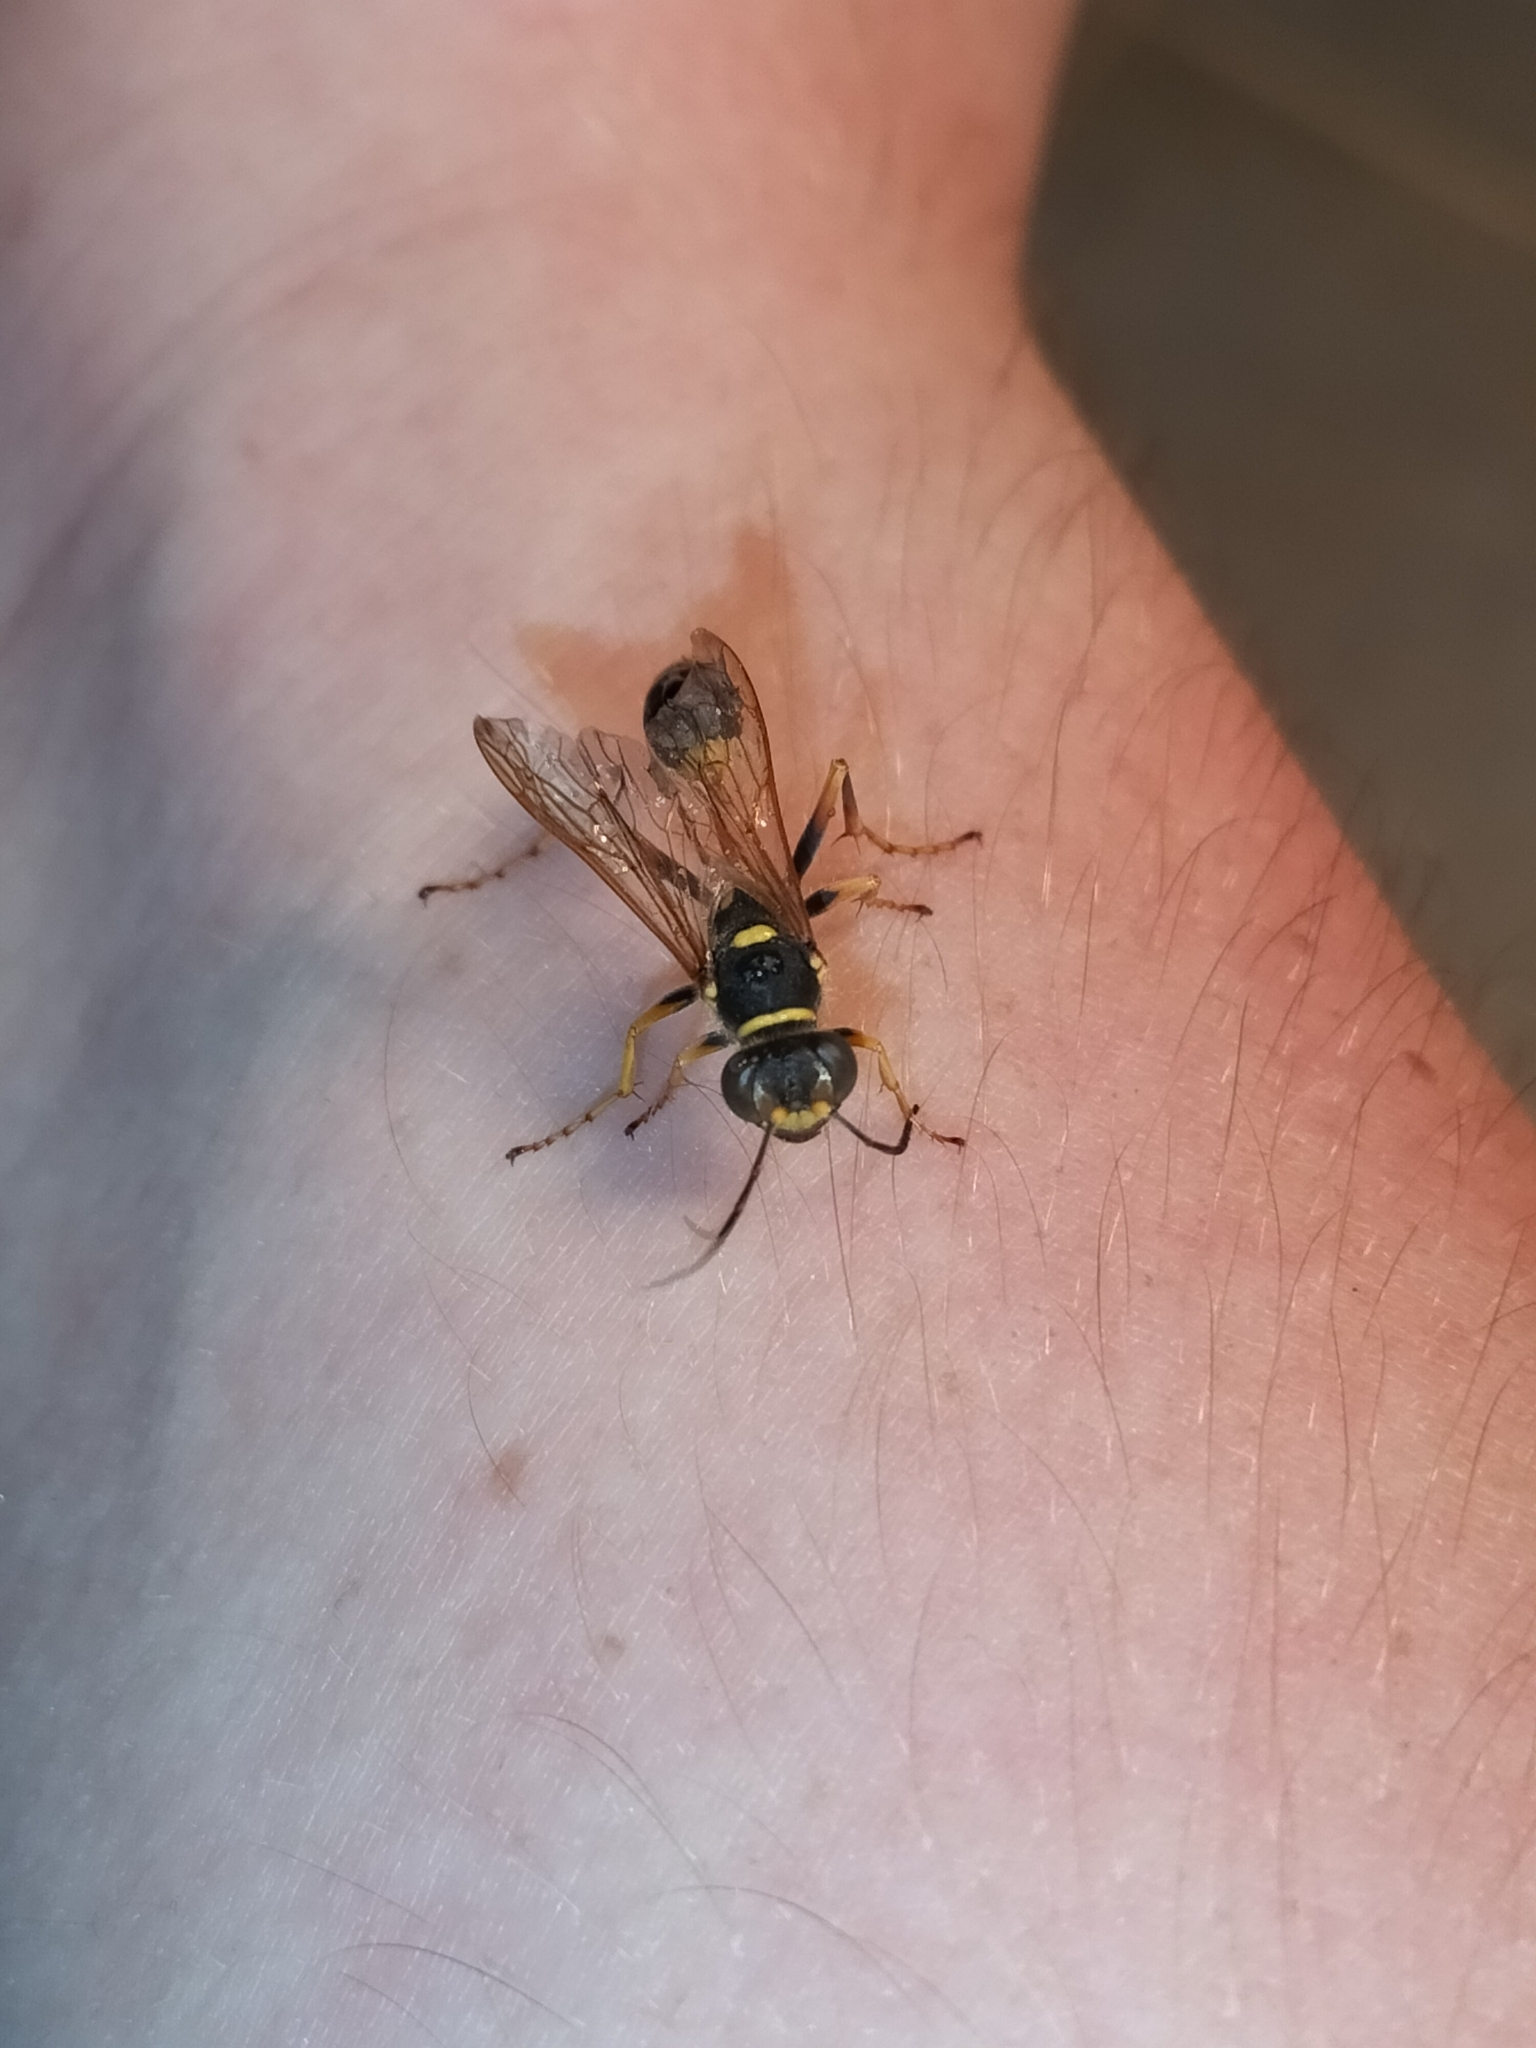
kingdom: Animalia
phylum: Arthropoda
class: Insecta
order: Hymenoptera
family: Sphecidae
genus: Sceliphron
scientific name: Sceliphron formosum
